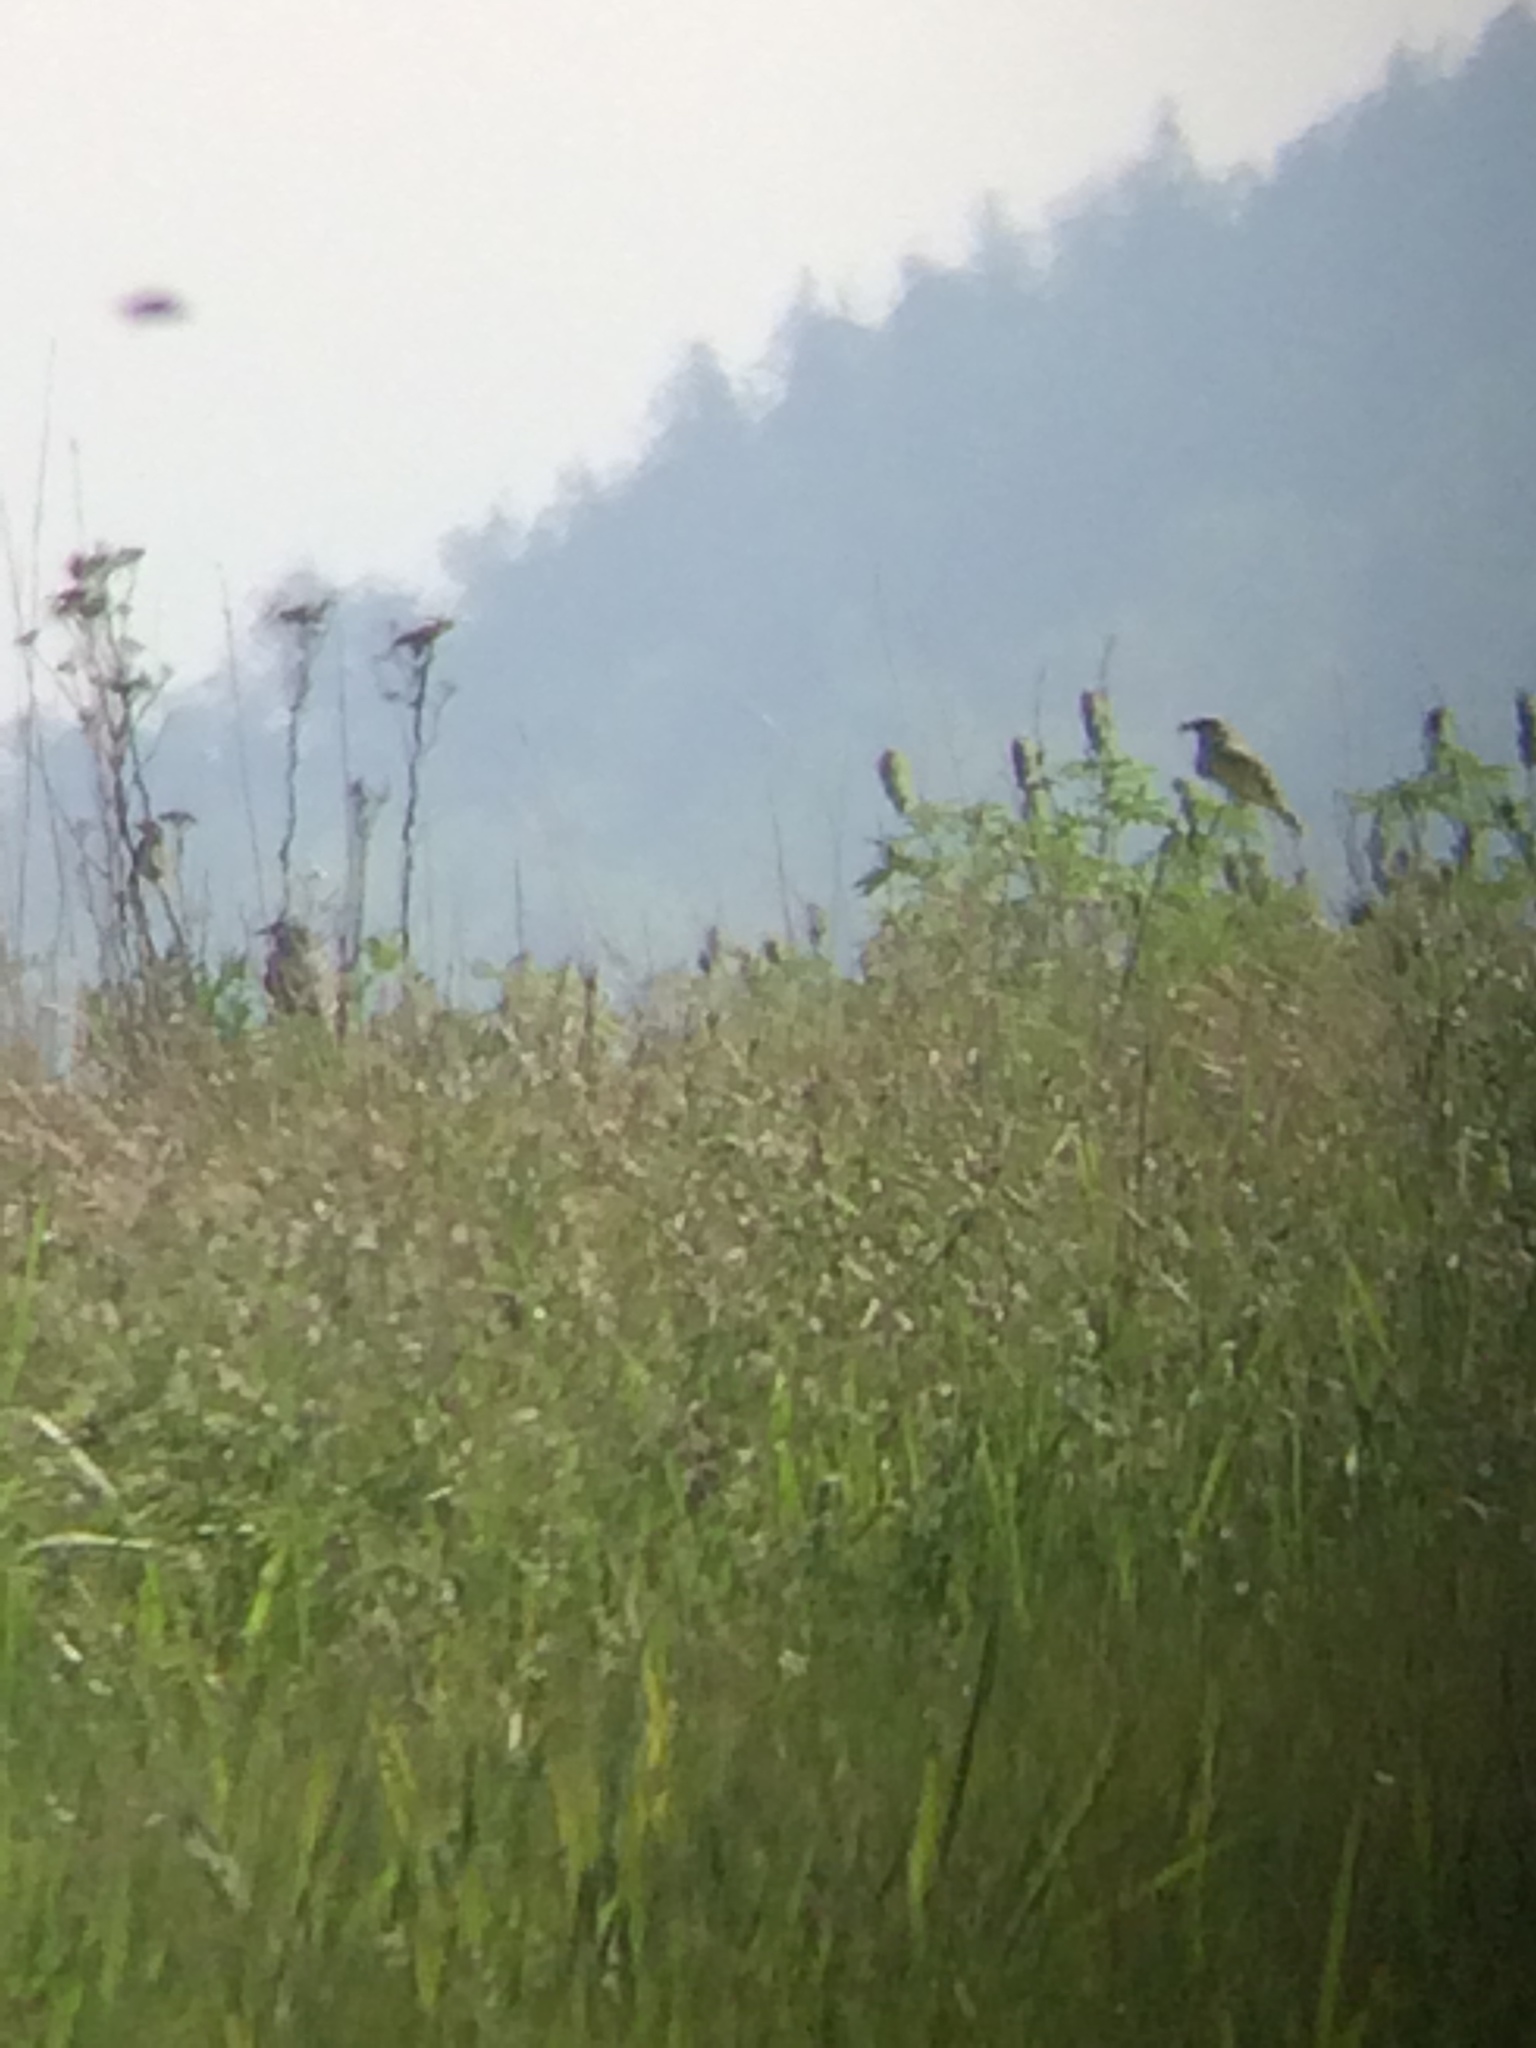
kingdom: Animalia
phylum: Chordata
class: Aves
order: Passeriformes
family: Tyrannidae
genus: Tyrannus
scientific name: Tyrannus verticalis
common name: Western kingbird
